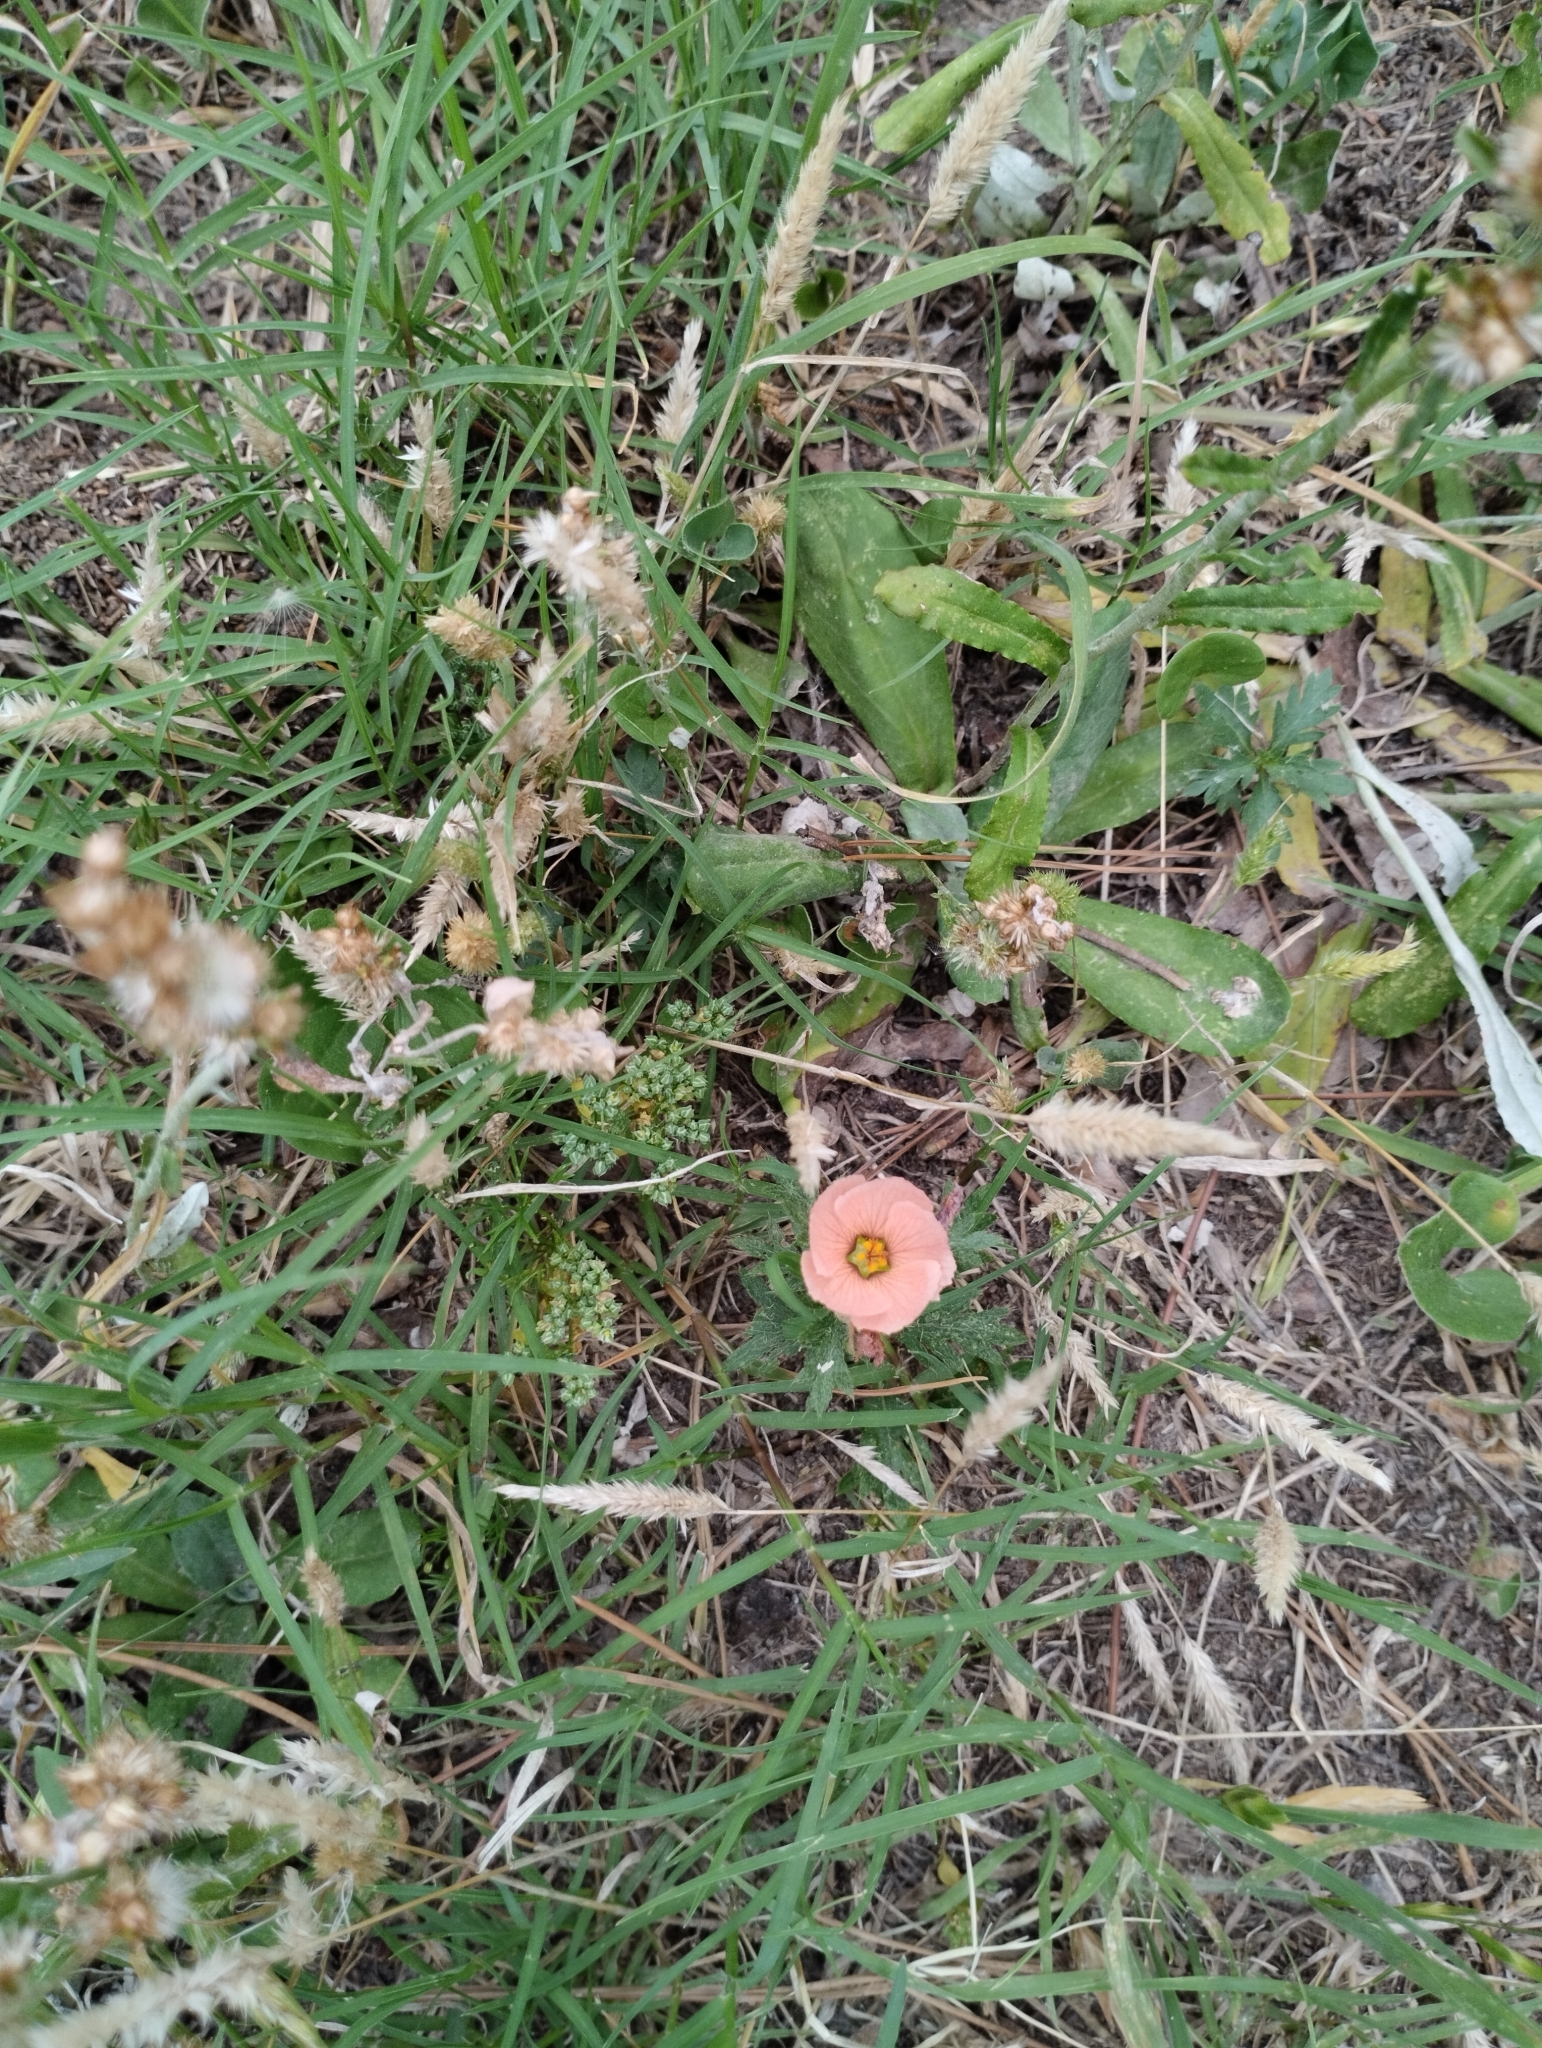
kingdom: Plantae
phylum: Tracheophyta
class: Magnoliopsida
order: Malpighiales
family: Turneraceae
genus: Turnera
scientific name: Turnera sidoides
